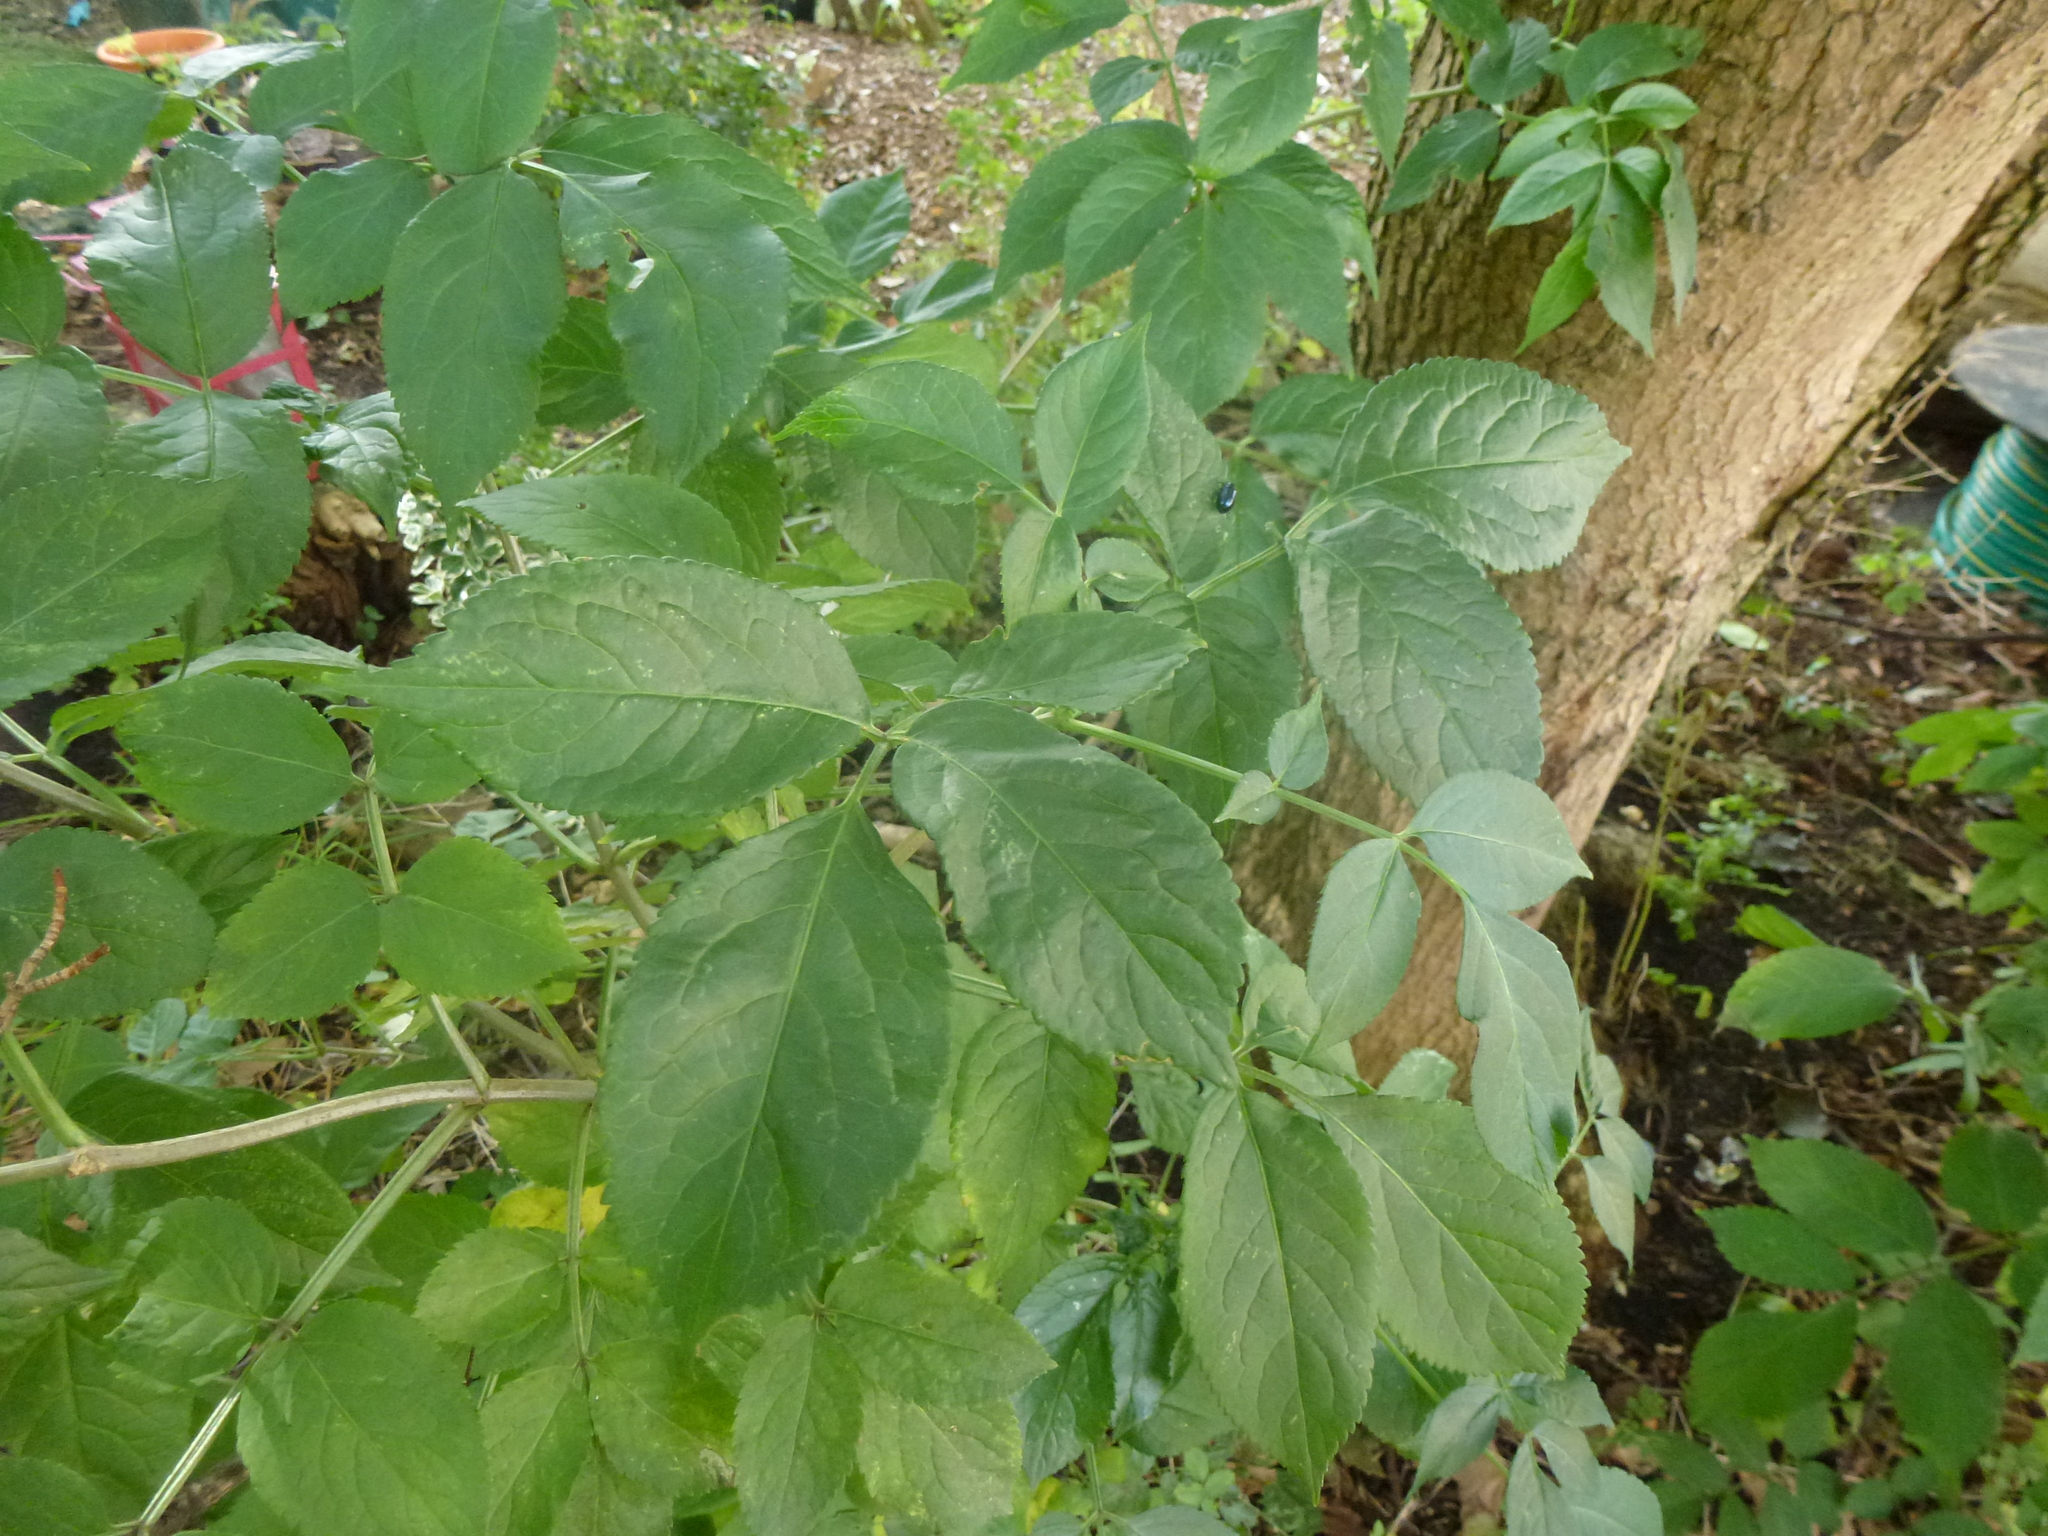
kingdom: Plantae
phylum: Tracheophyta
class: Magnoliopsida
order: Dipsacales
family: Viburnaceae
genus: Sambucus
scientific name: Sambucus nigra
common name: Elder
